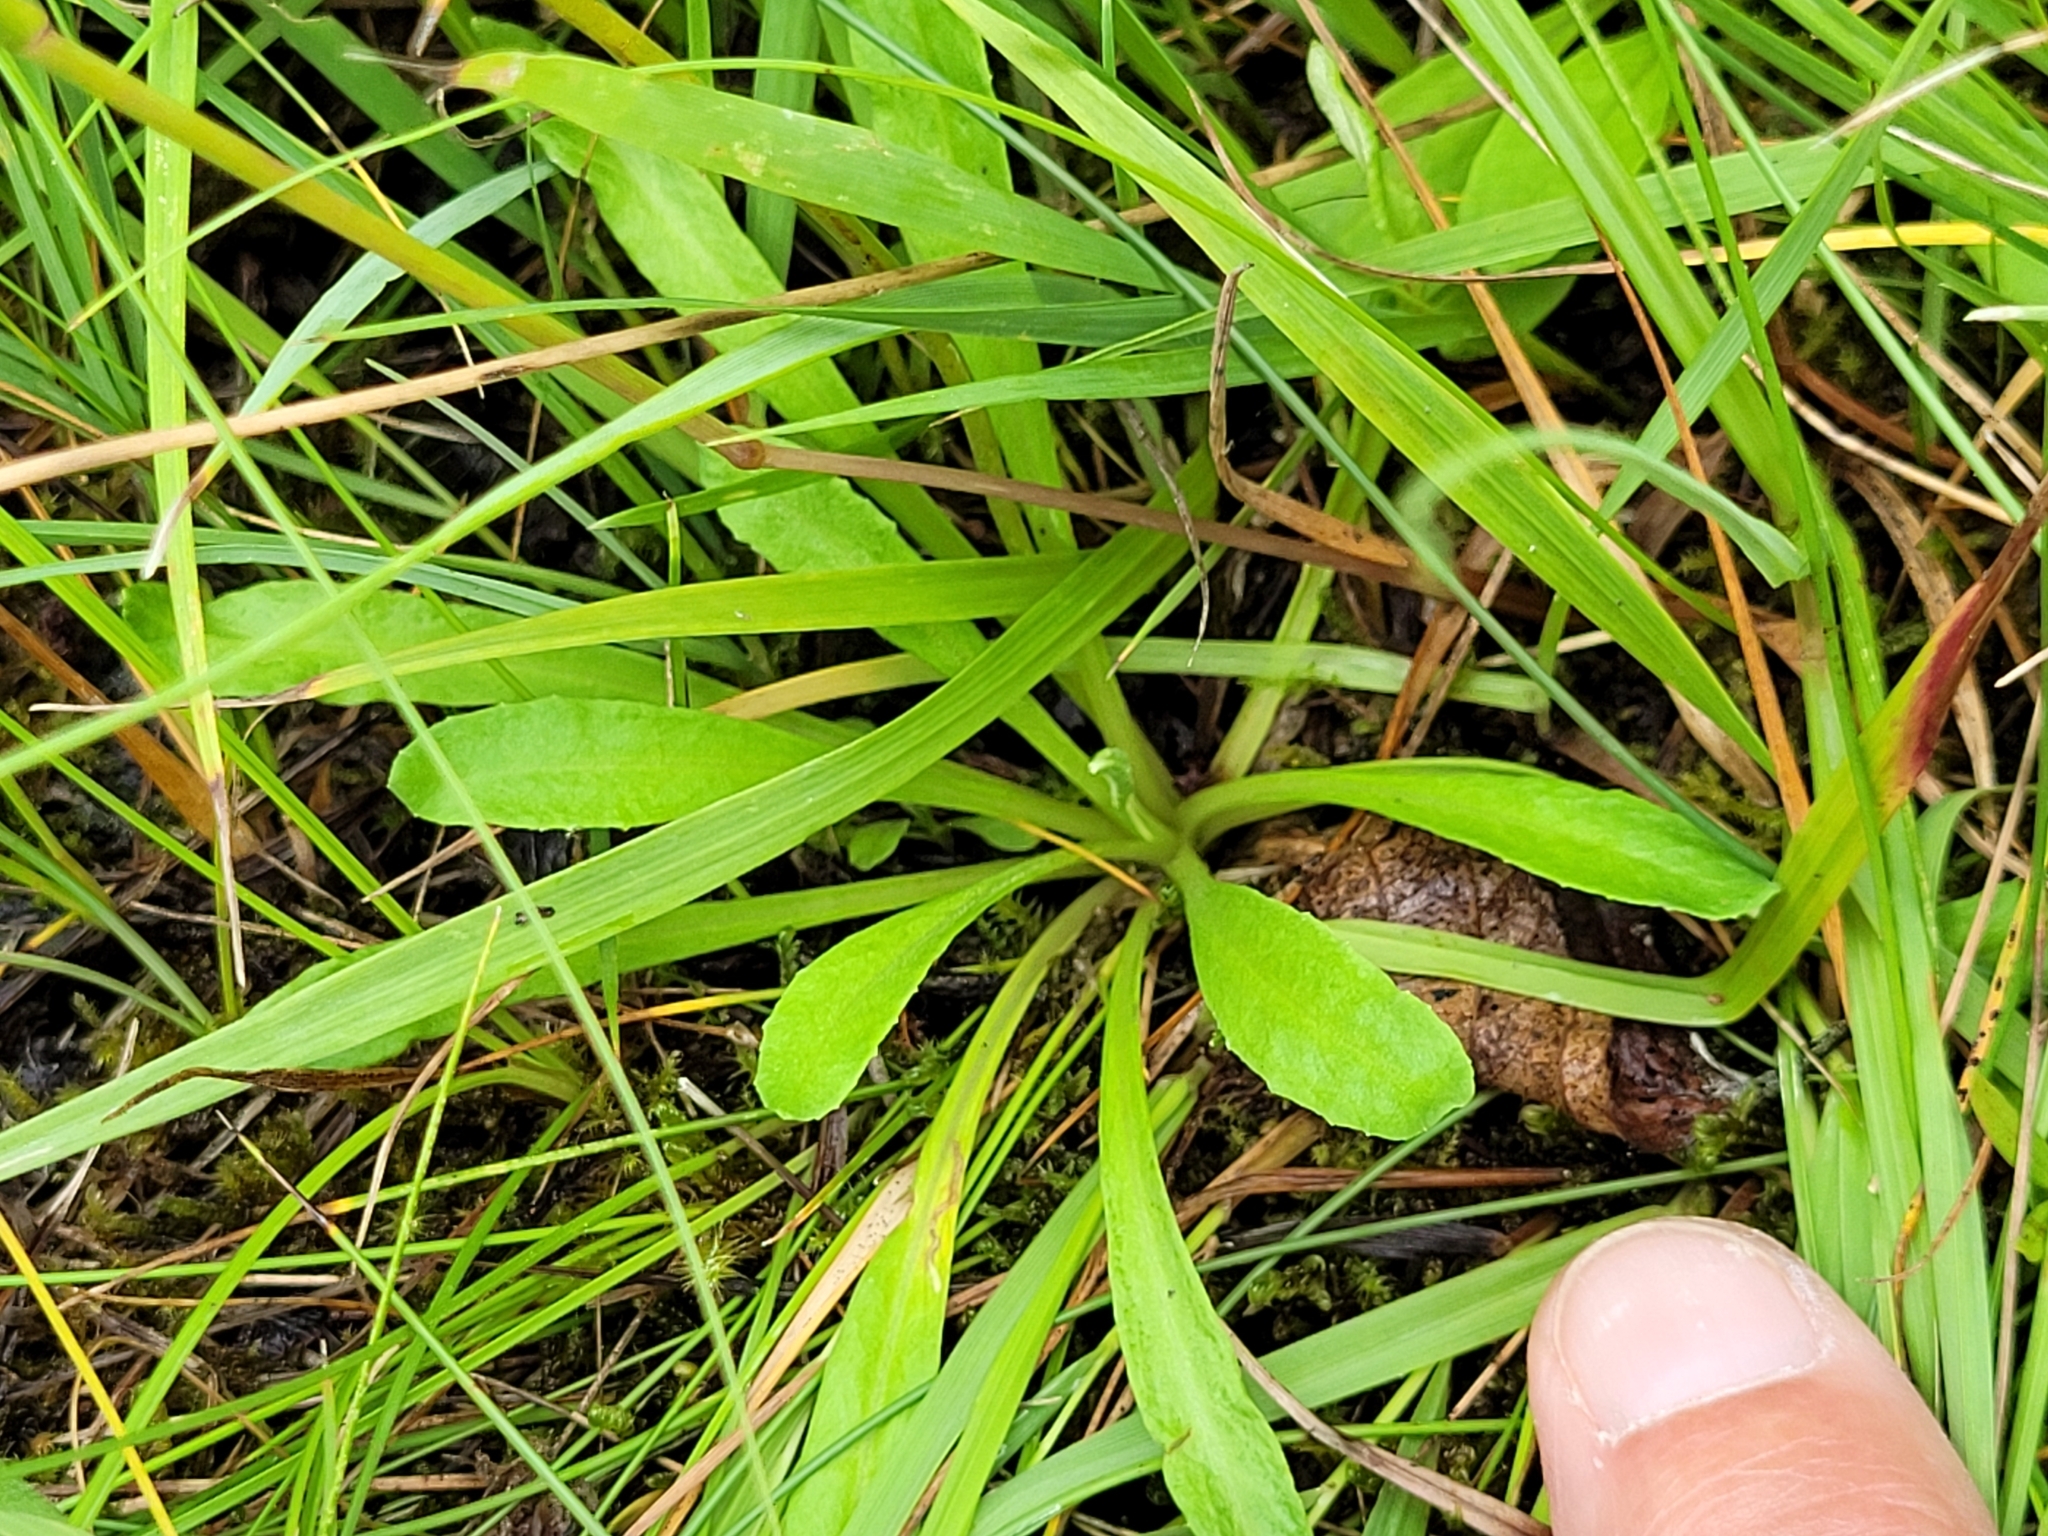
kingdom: Plantae
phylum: Tracheophyta
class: Magnoliopsida
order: Ericales
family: Primulaceae
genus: Primula
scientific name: Primula farinosa
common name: Bird's-eye primrose
